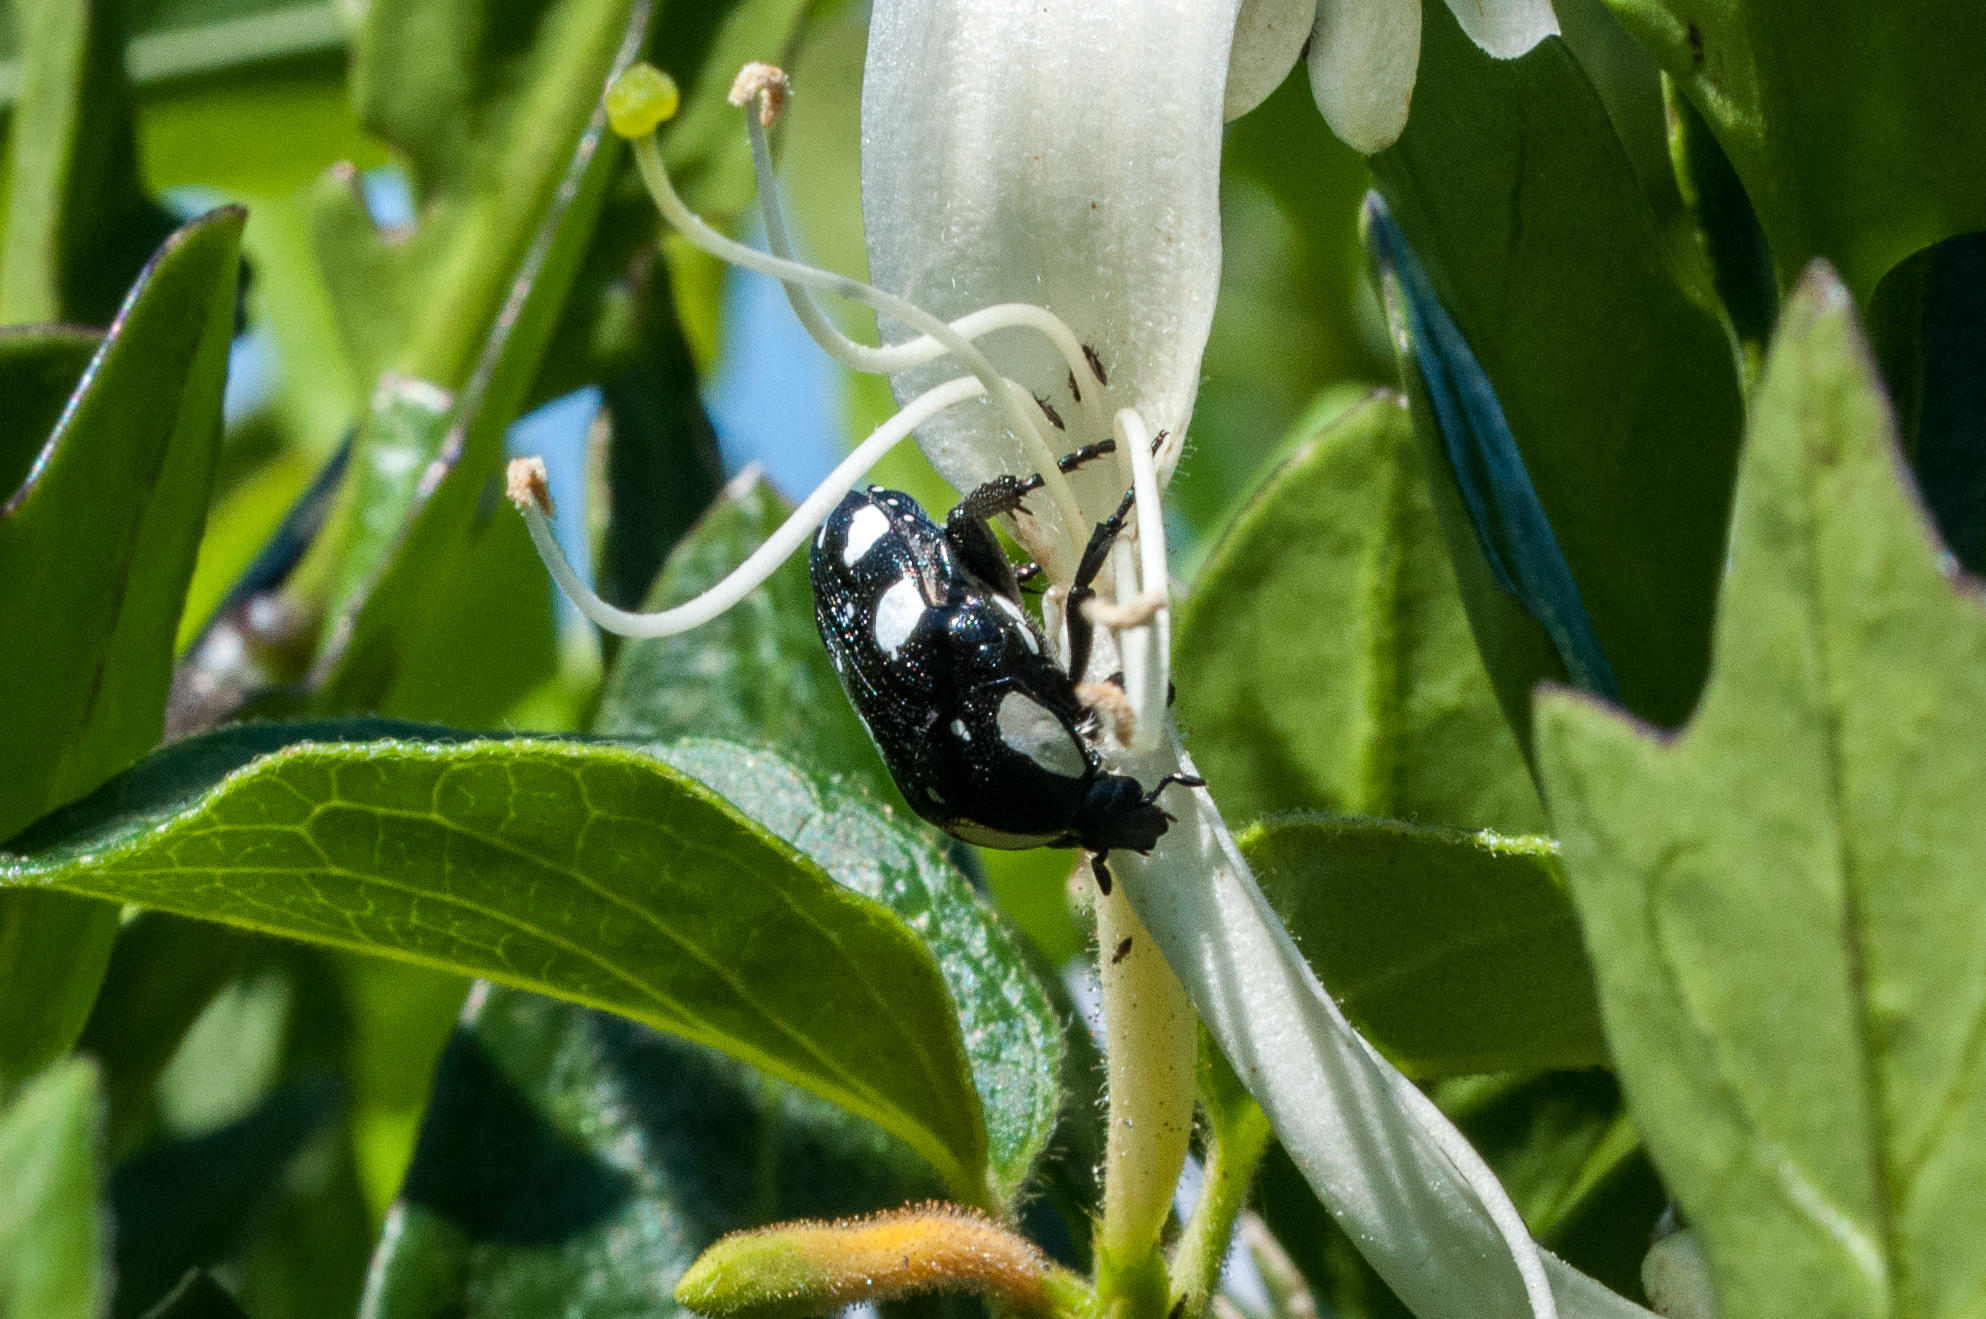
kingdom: Animalia
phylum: Arthropoda
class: Insecta
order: Coleoptera
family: Scarabaeidae
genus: Mausoleopsis
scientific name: Mausoleopsis amabilis
